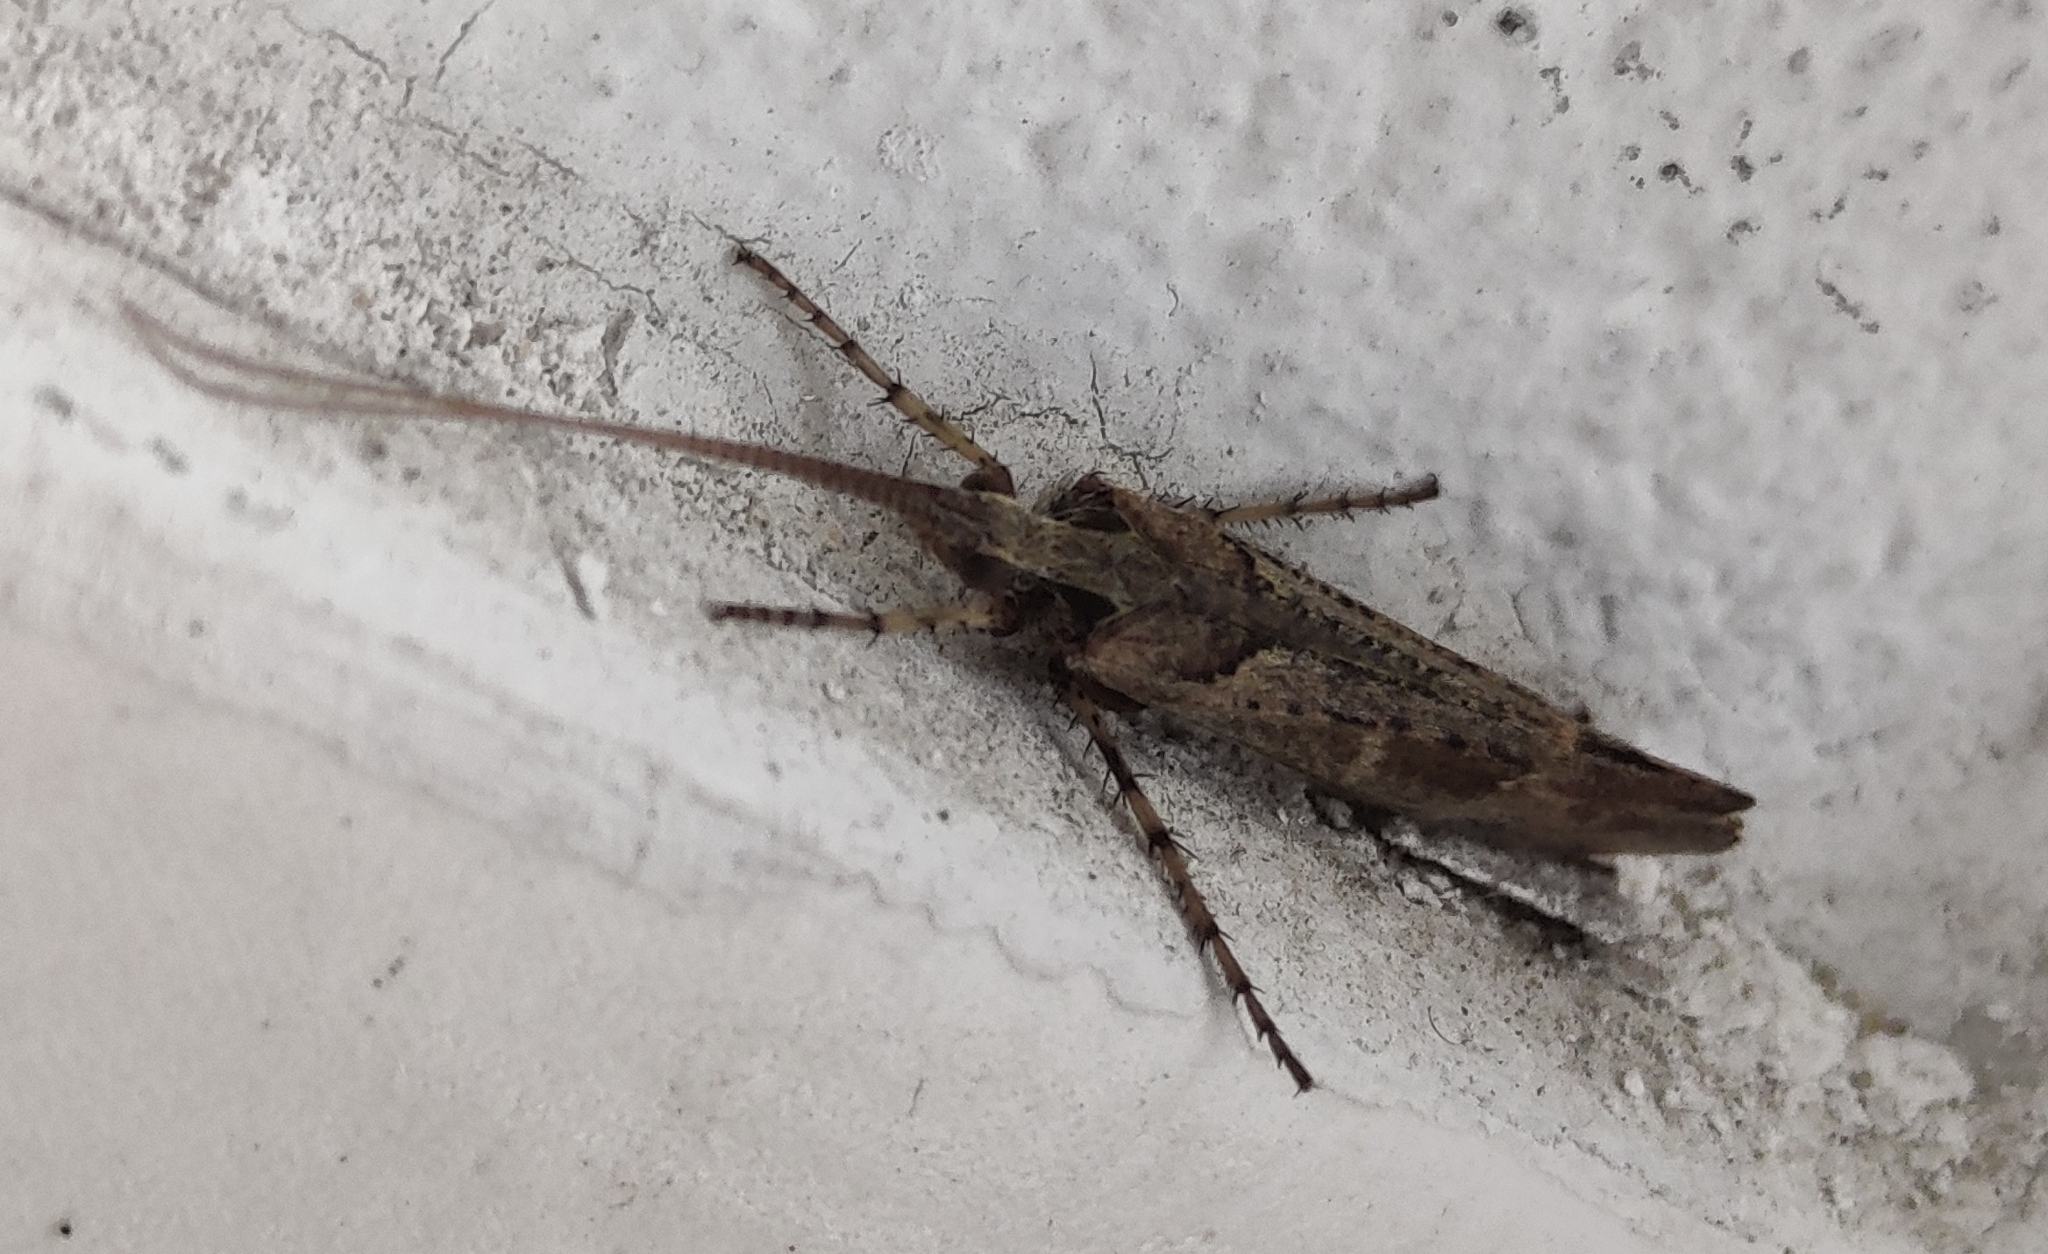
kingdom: Animalia
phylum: Arthropoda
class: Insecta
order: Trichoptera
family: Limnephilidae
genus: Glyphotaelius
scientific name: Glyphotaelius pellucidus
